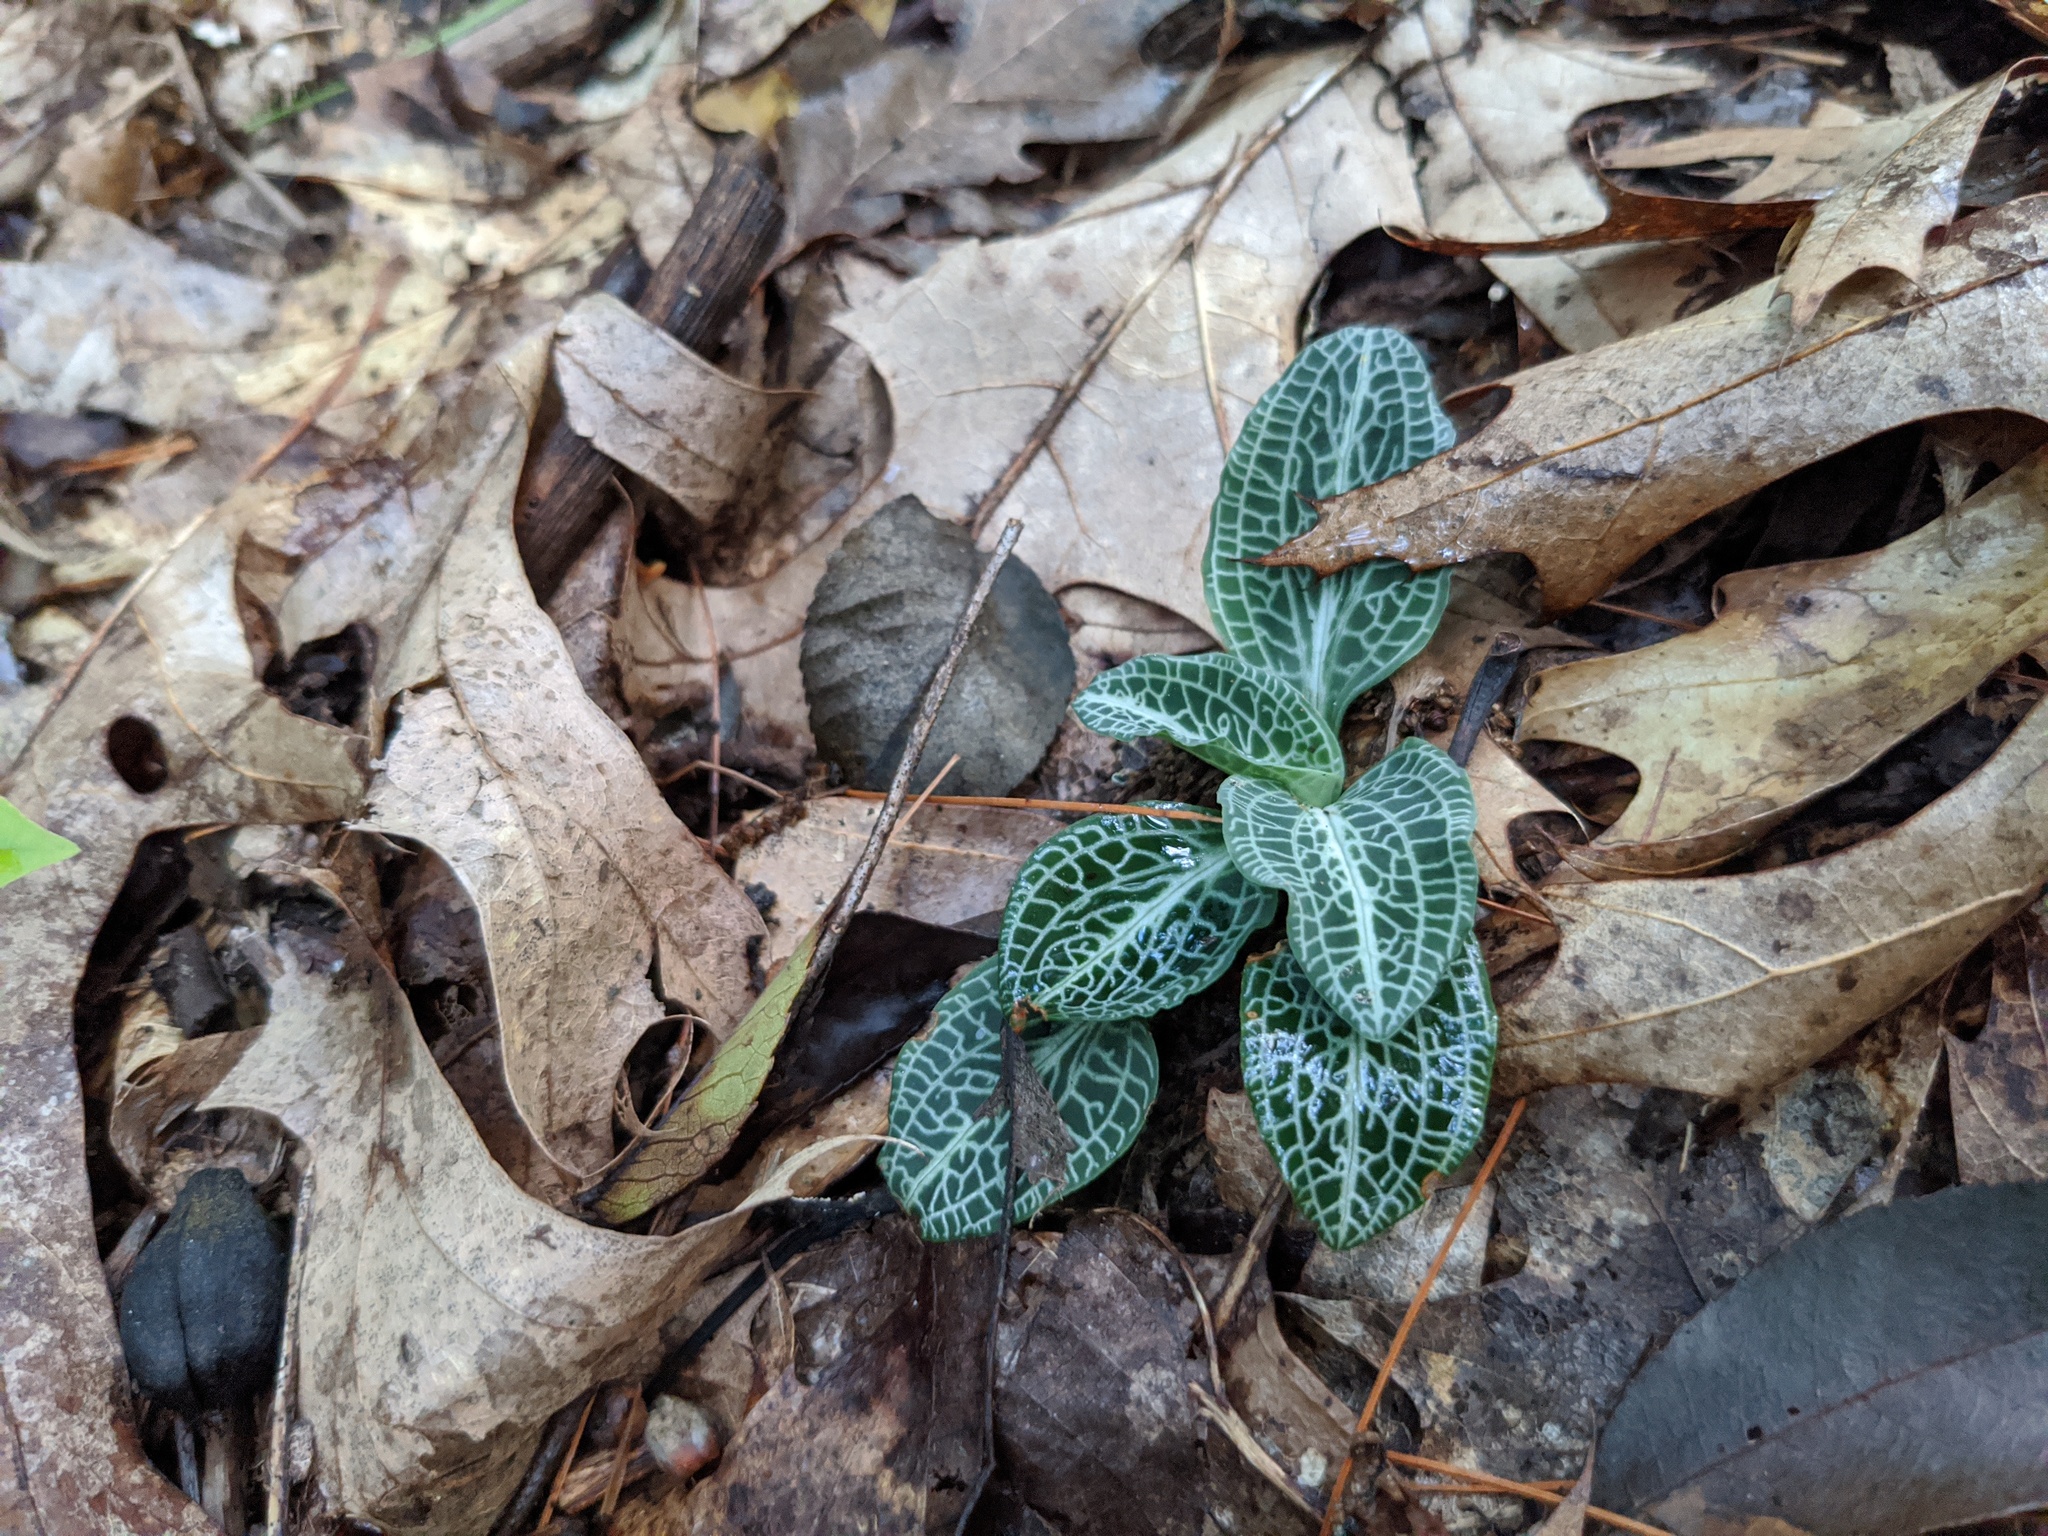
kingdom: Plantae
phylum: Tracheophyta
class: Liliopsida
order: Asparagales
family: Orchidaceae
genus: Goodyera
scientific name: Goodyera pubescens
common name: Downy rattlesnake-plantain
